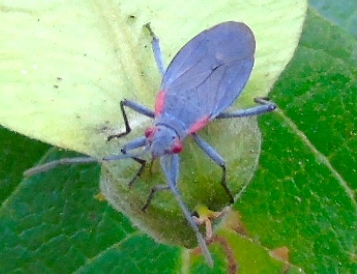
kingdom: Animalia
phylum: Arthropoda
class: Insecta
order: Hemiptera
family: Rhopalidae
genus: Jadera
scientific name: Jadera
